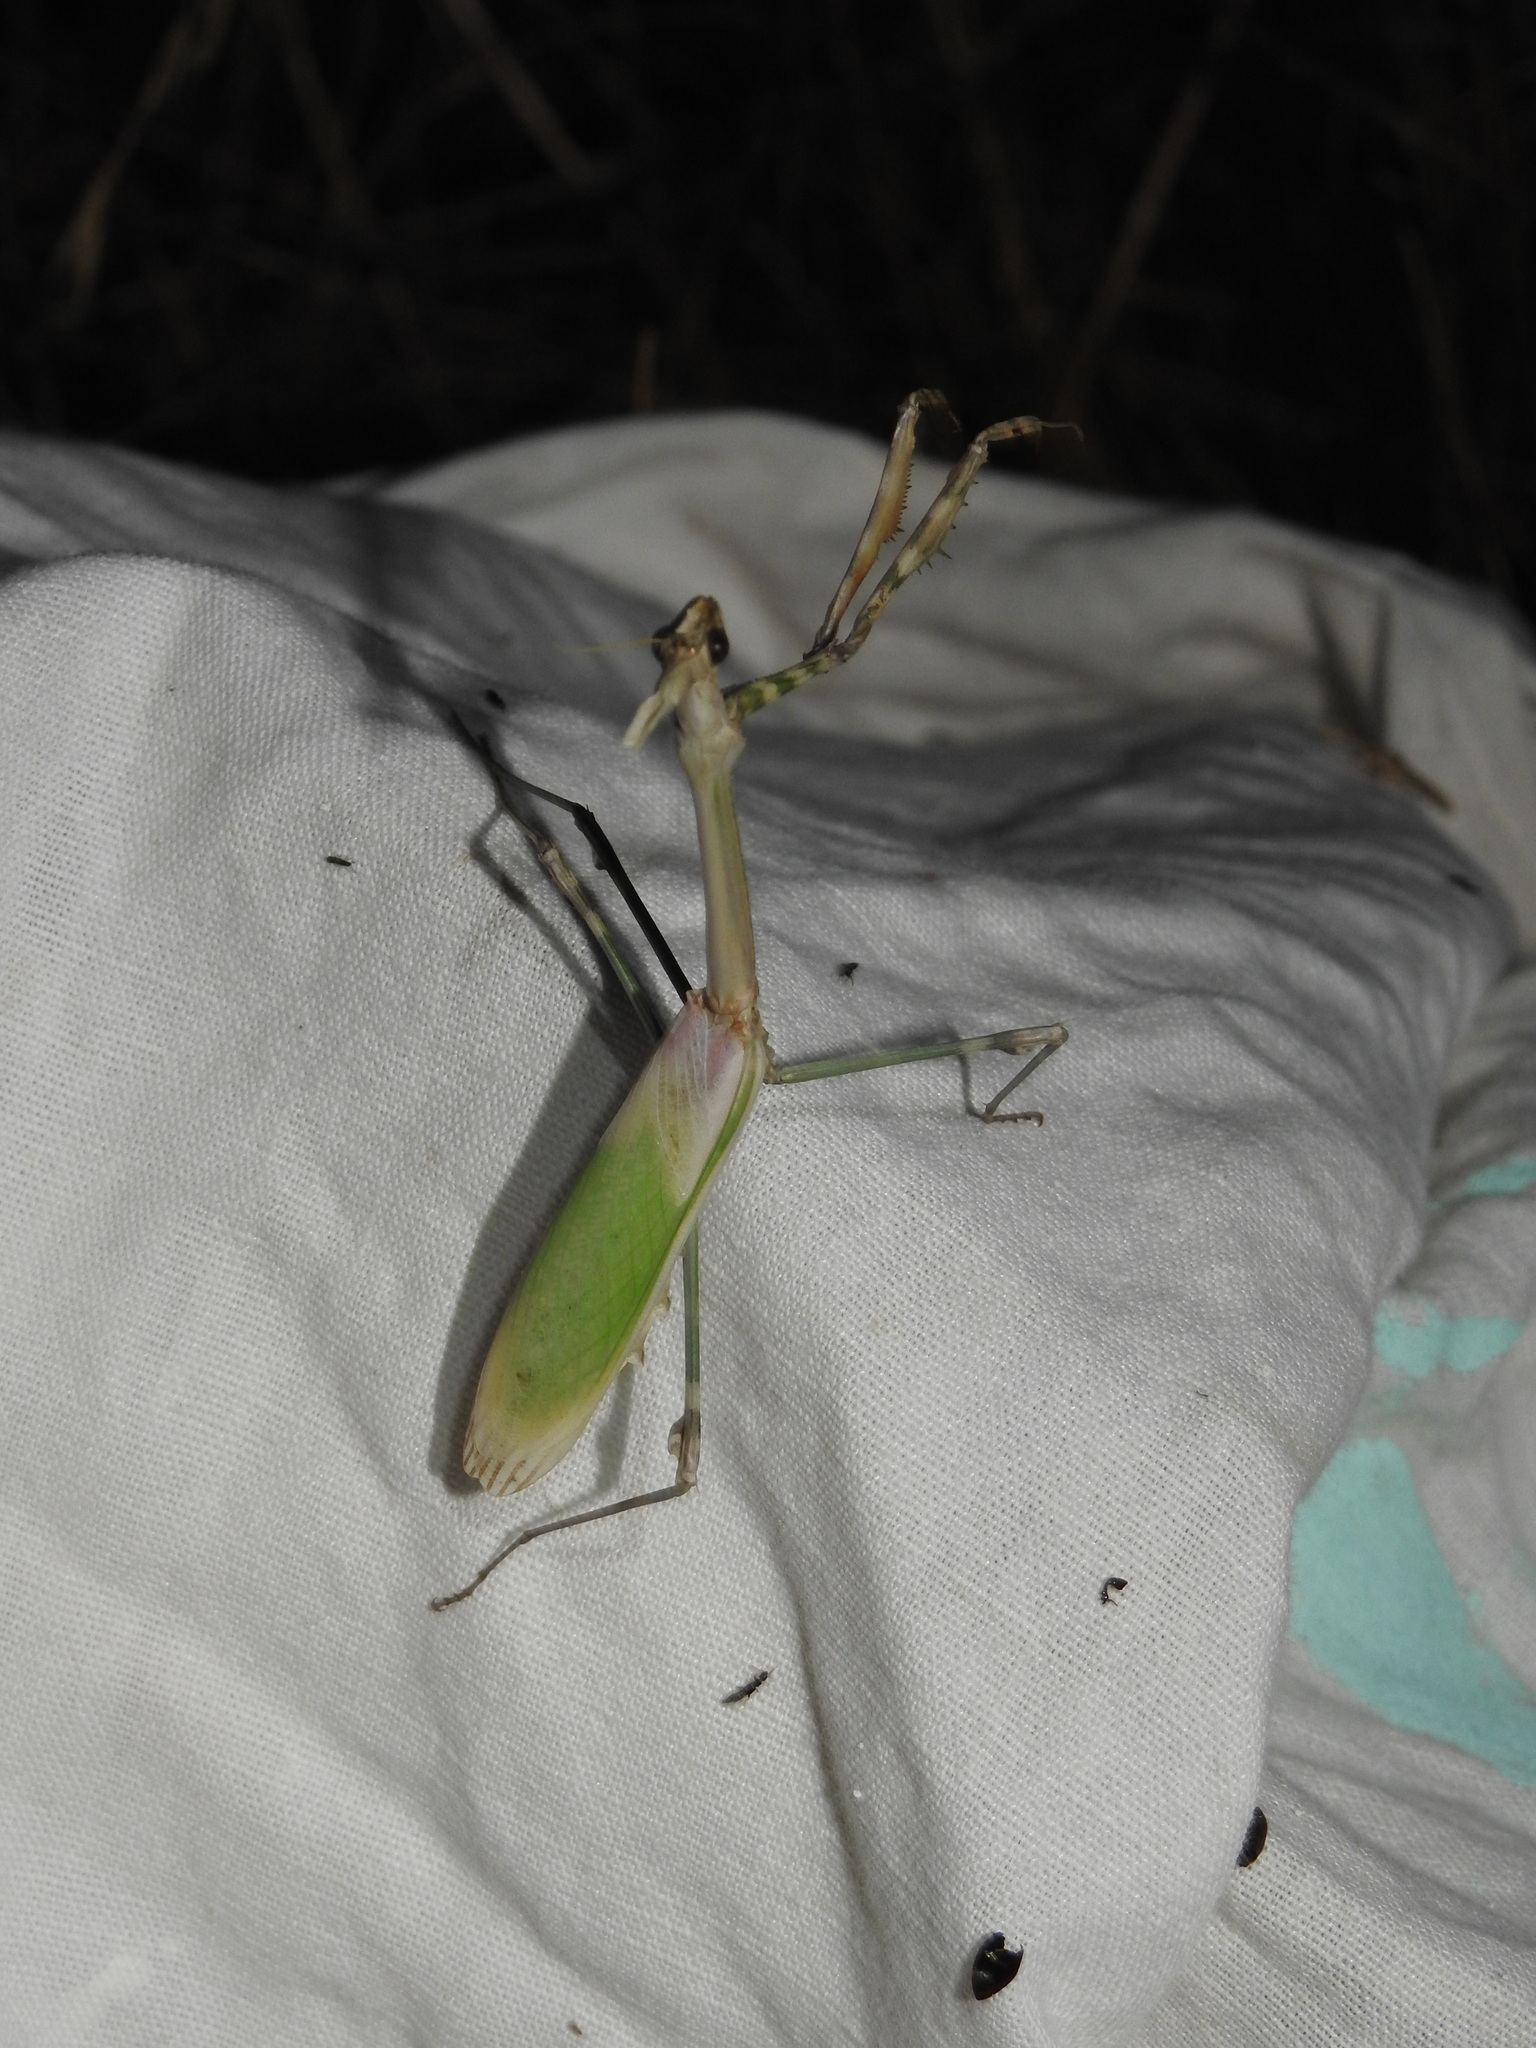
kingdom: Animalia
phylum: Arthropoda
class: Insecta
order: Mantodea
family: Empusidae
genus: Empusa
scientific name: Empusa pennata
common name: Conehead mantis
